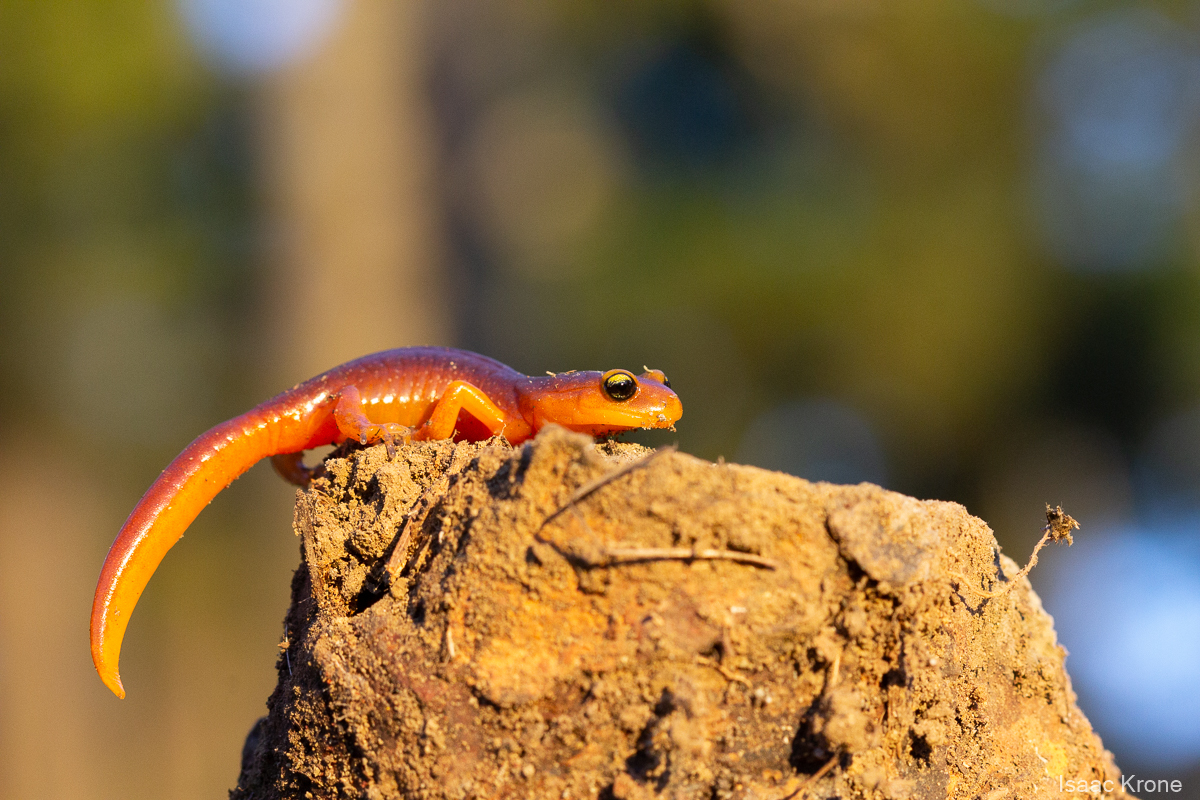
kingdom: Animalia
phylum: Chordata
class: Amphibia
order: Caudata
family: Plethodontidae
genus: Ensatina
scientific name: Ensatina eschscholtzii
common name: Ensatina
